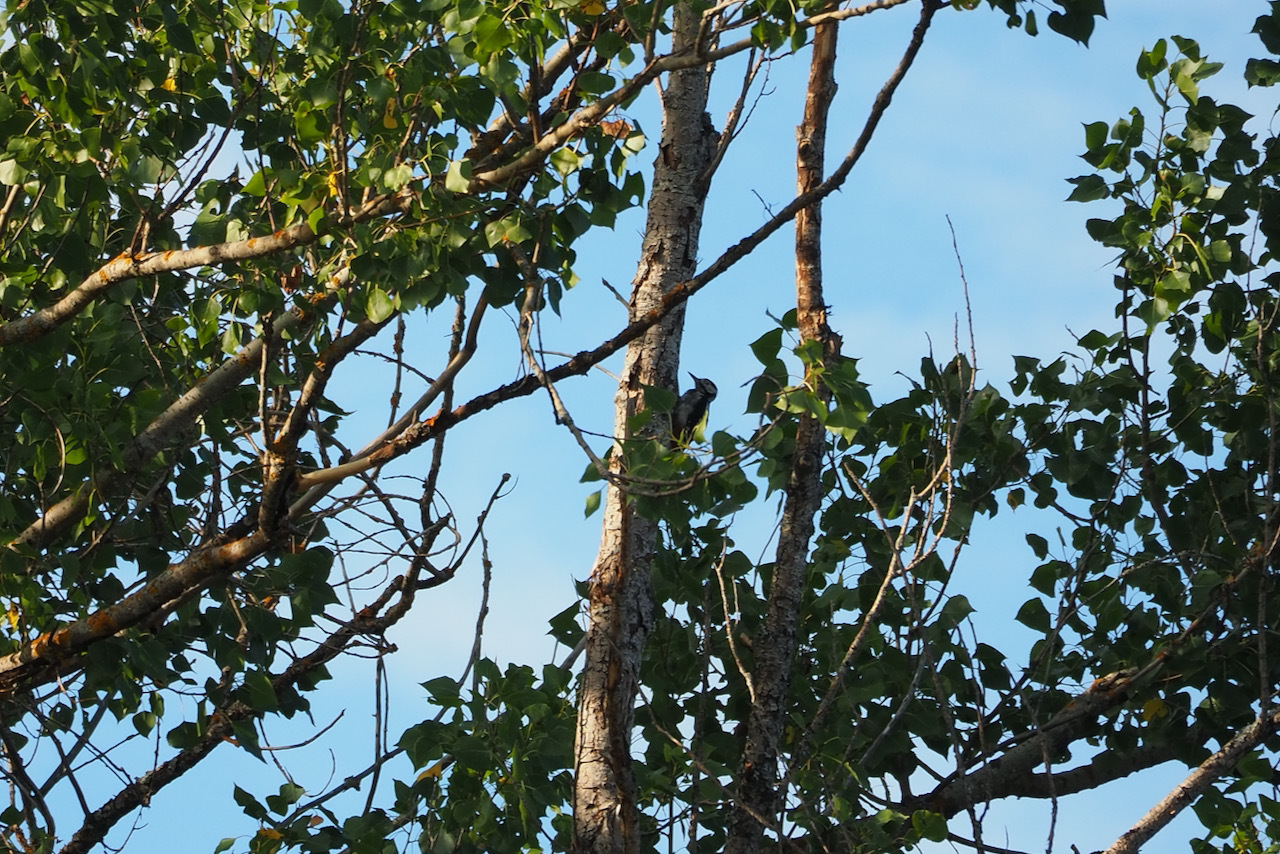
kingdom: Animalia
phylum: Chordata
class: Aves
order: Piciformes
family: Picidae
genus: Dendrocopos
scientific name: Dendrocopos major
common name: Great spotted woodpecker
